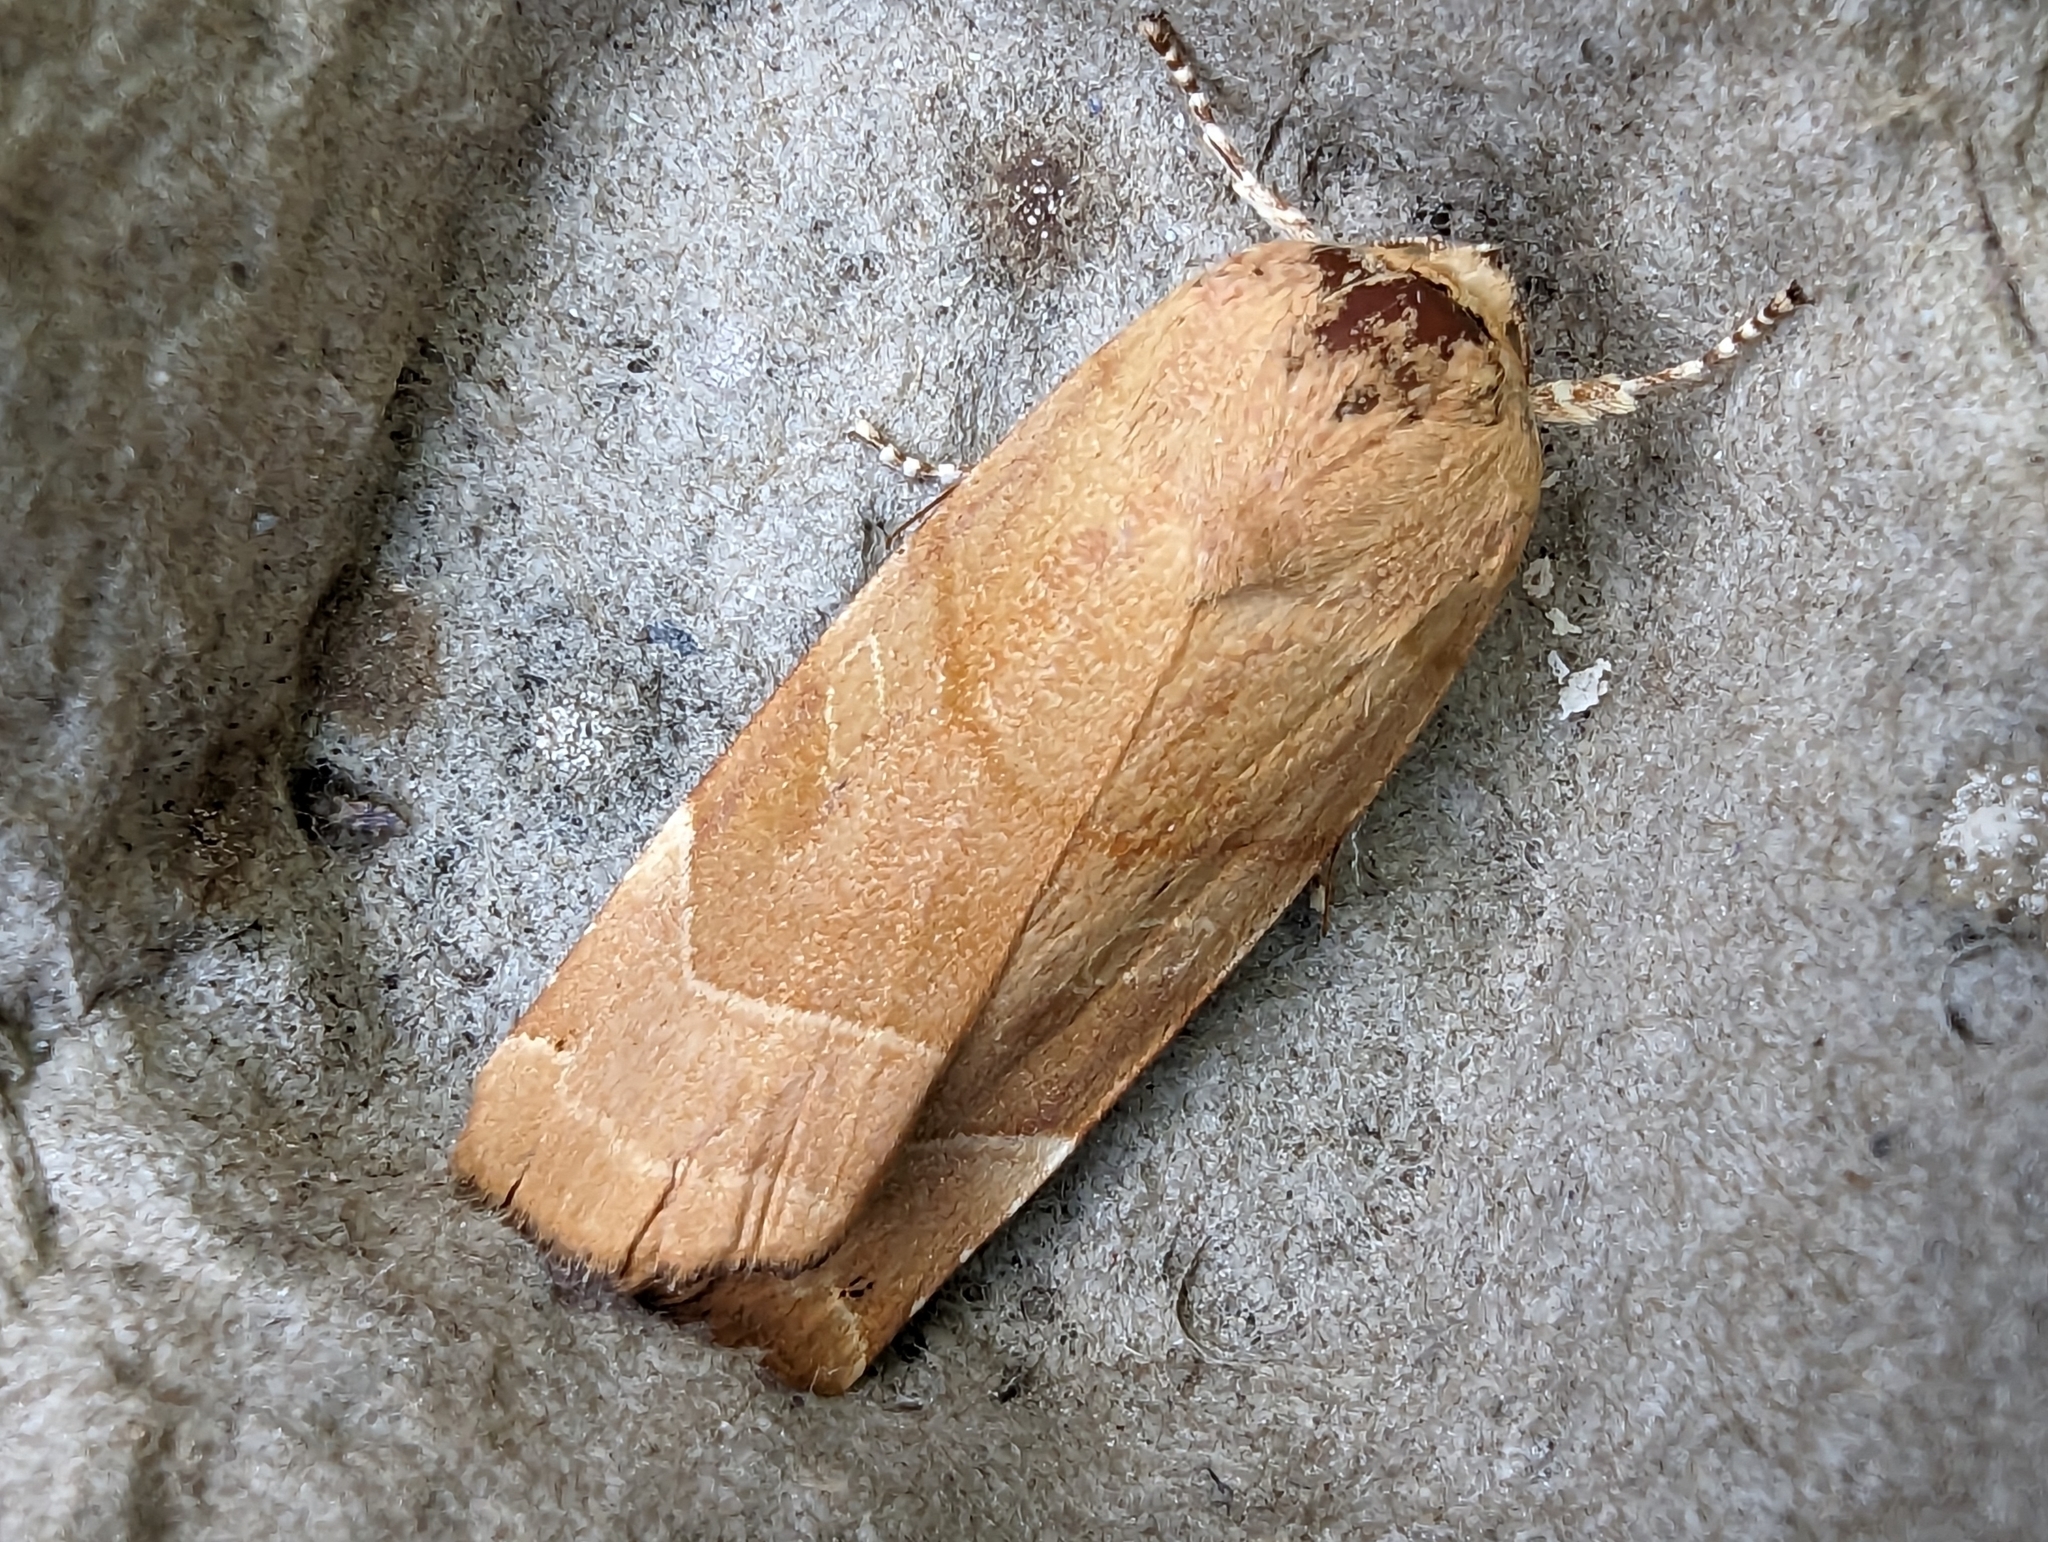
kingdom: Animalia
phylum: Arthropoda
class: Insecta
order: Lepidoptera
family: Noctuidae
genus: Noctua
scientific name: Noctua fimbriata
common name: Broad-bordered yellow underwing
